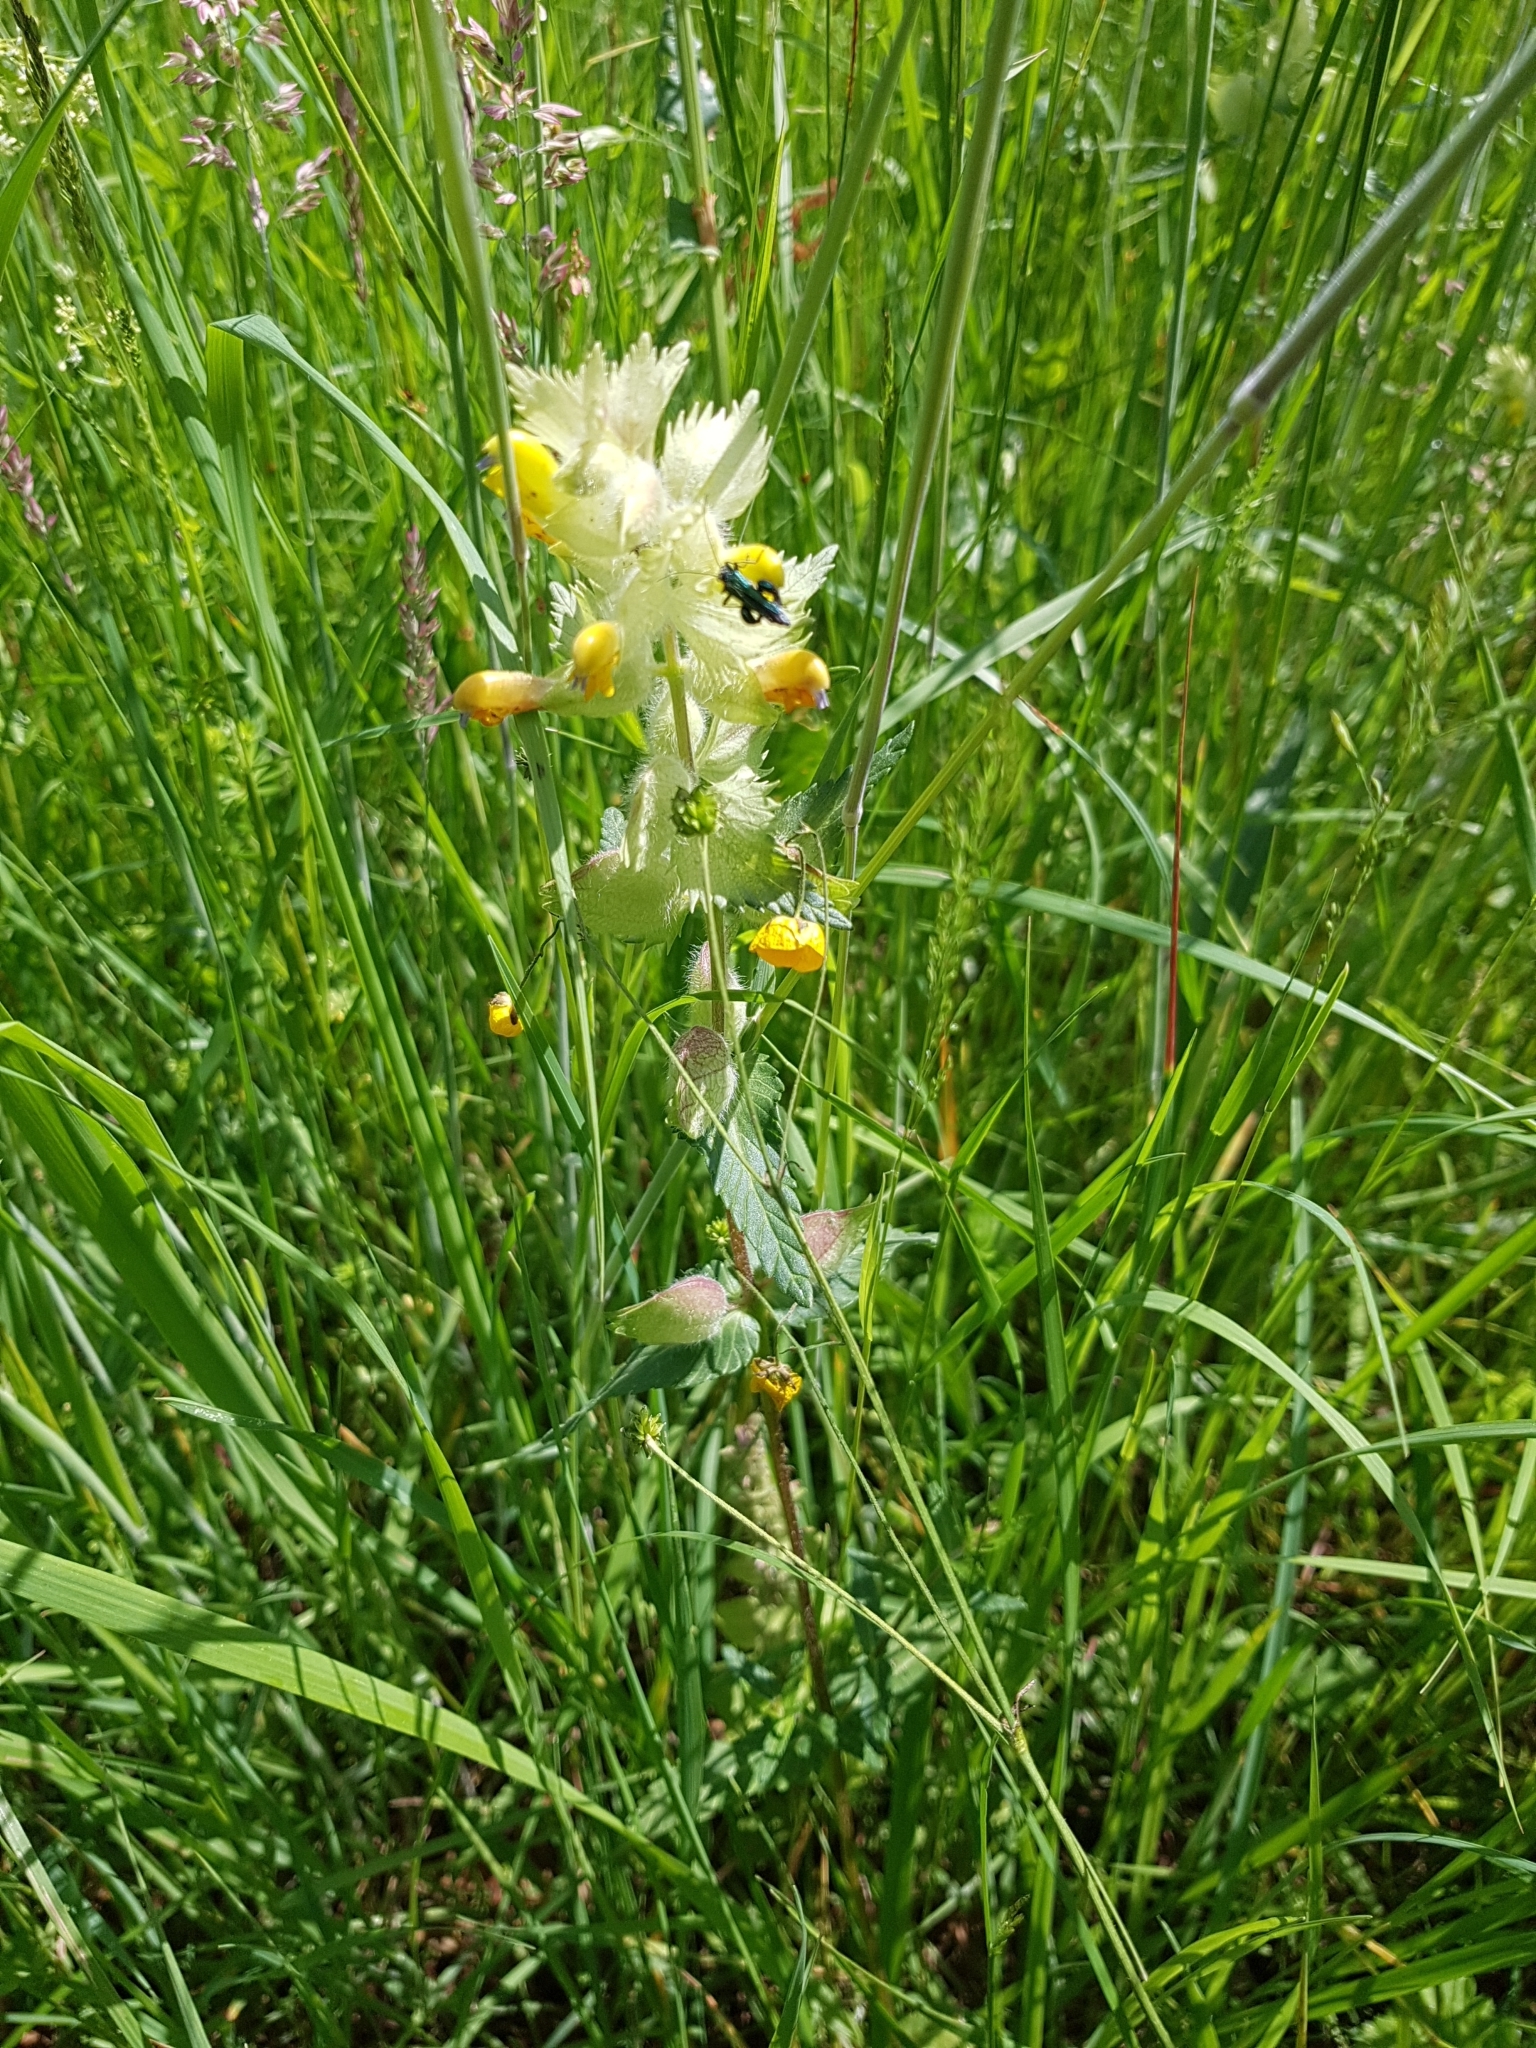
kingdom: Plantae
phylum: Tracheophyta
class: Magnoliopsida
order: Lamiales
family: Orobanchaceae
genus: Rhinanthus
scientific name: Rhinanthus alectorolophus
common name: Greater yellow-rattle
